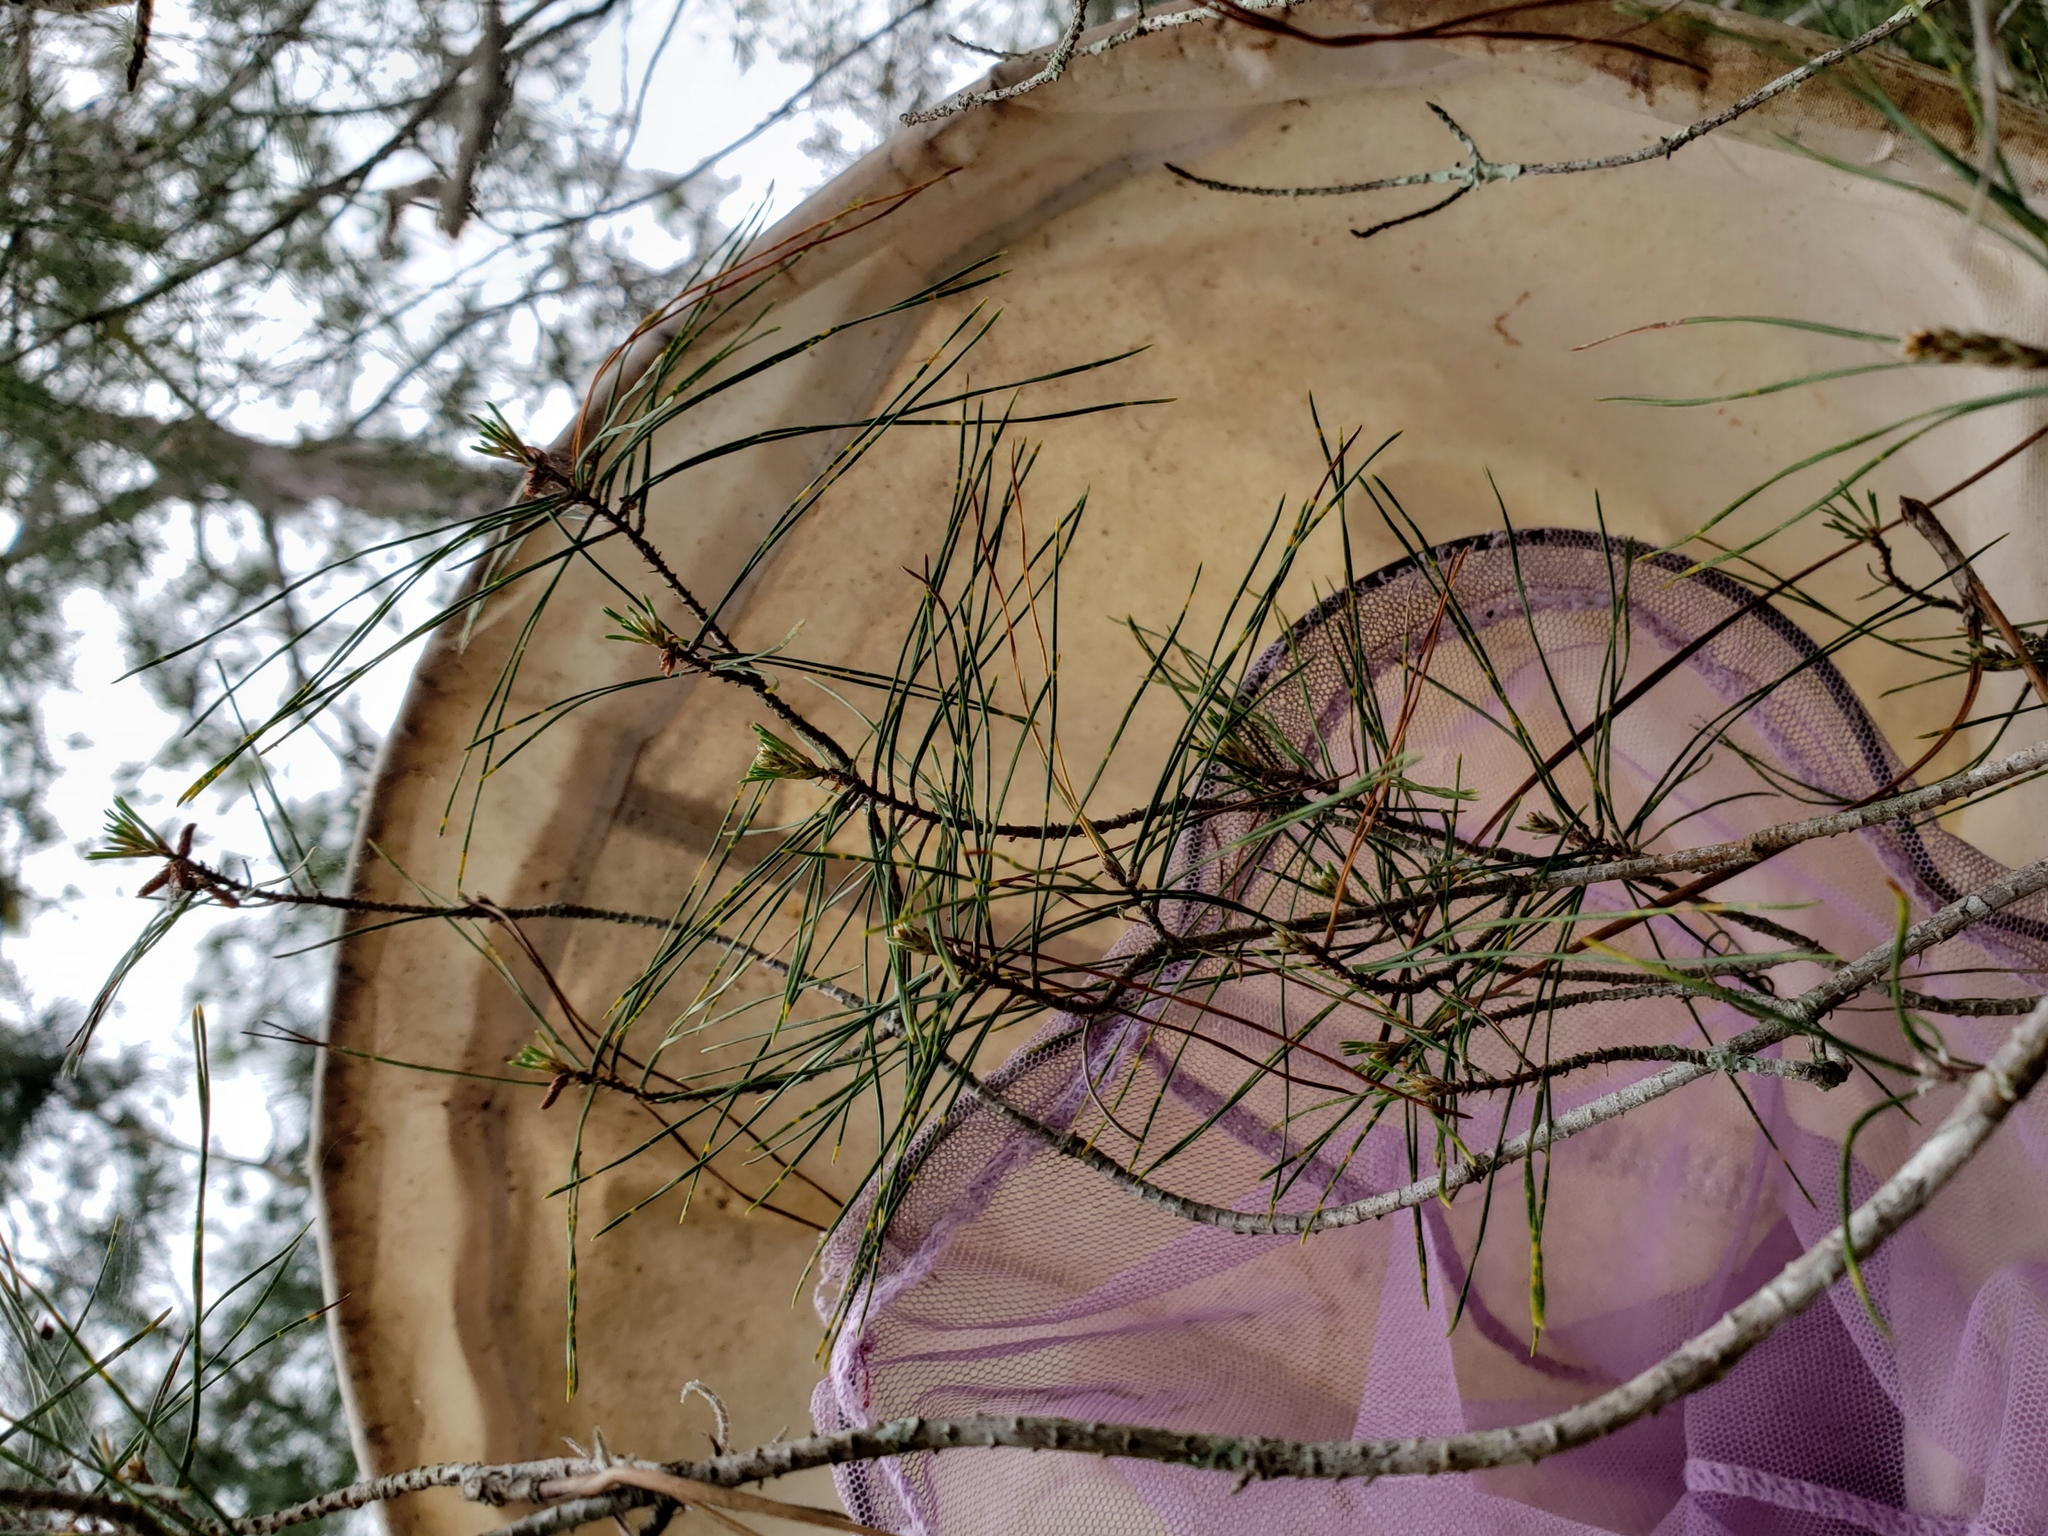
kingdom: Plantae
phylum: Tracheophyta
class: Pinopsida
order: Pinales
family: Pinaceae
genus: Pinus
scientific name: Pinus clausa
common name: Sand pine
